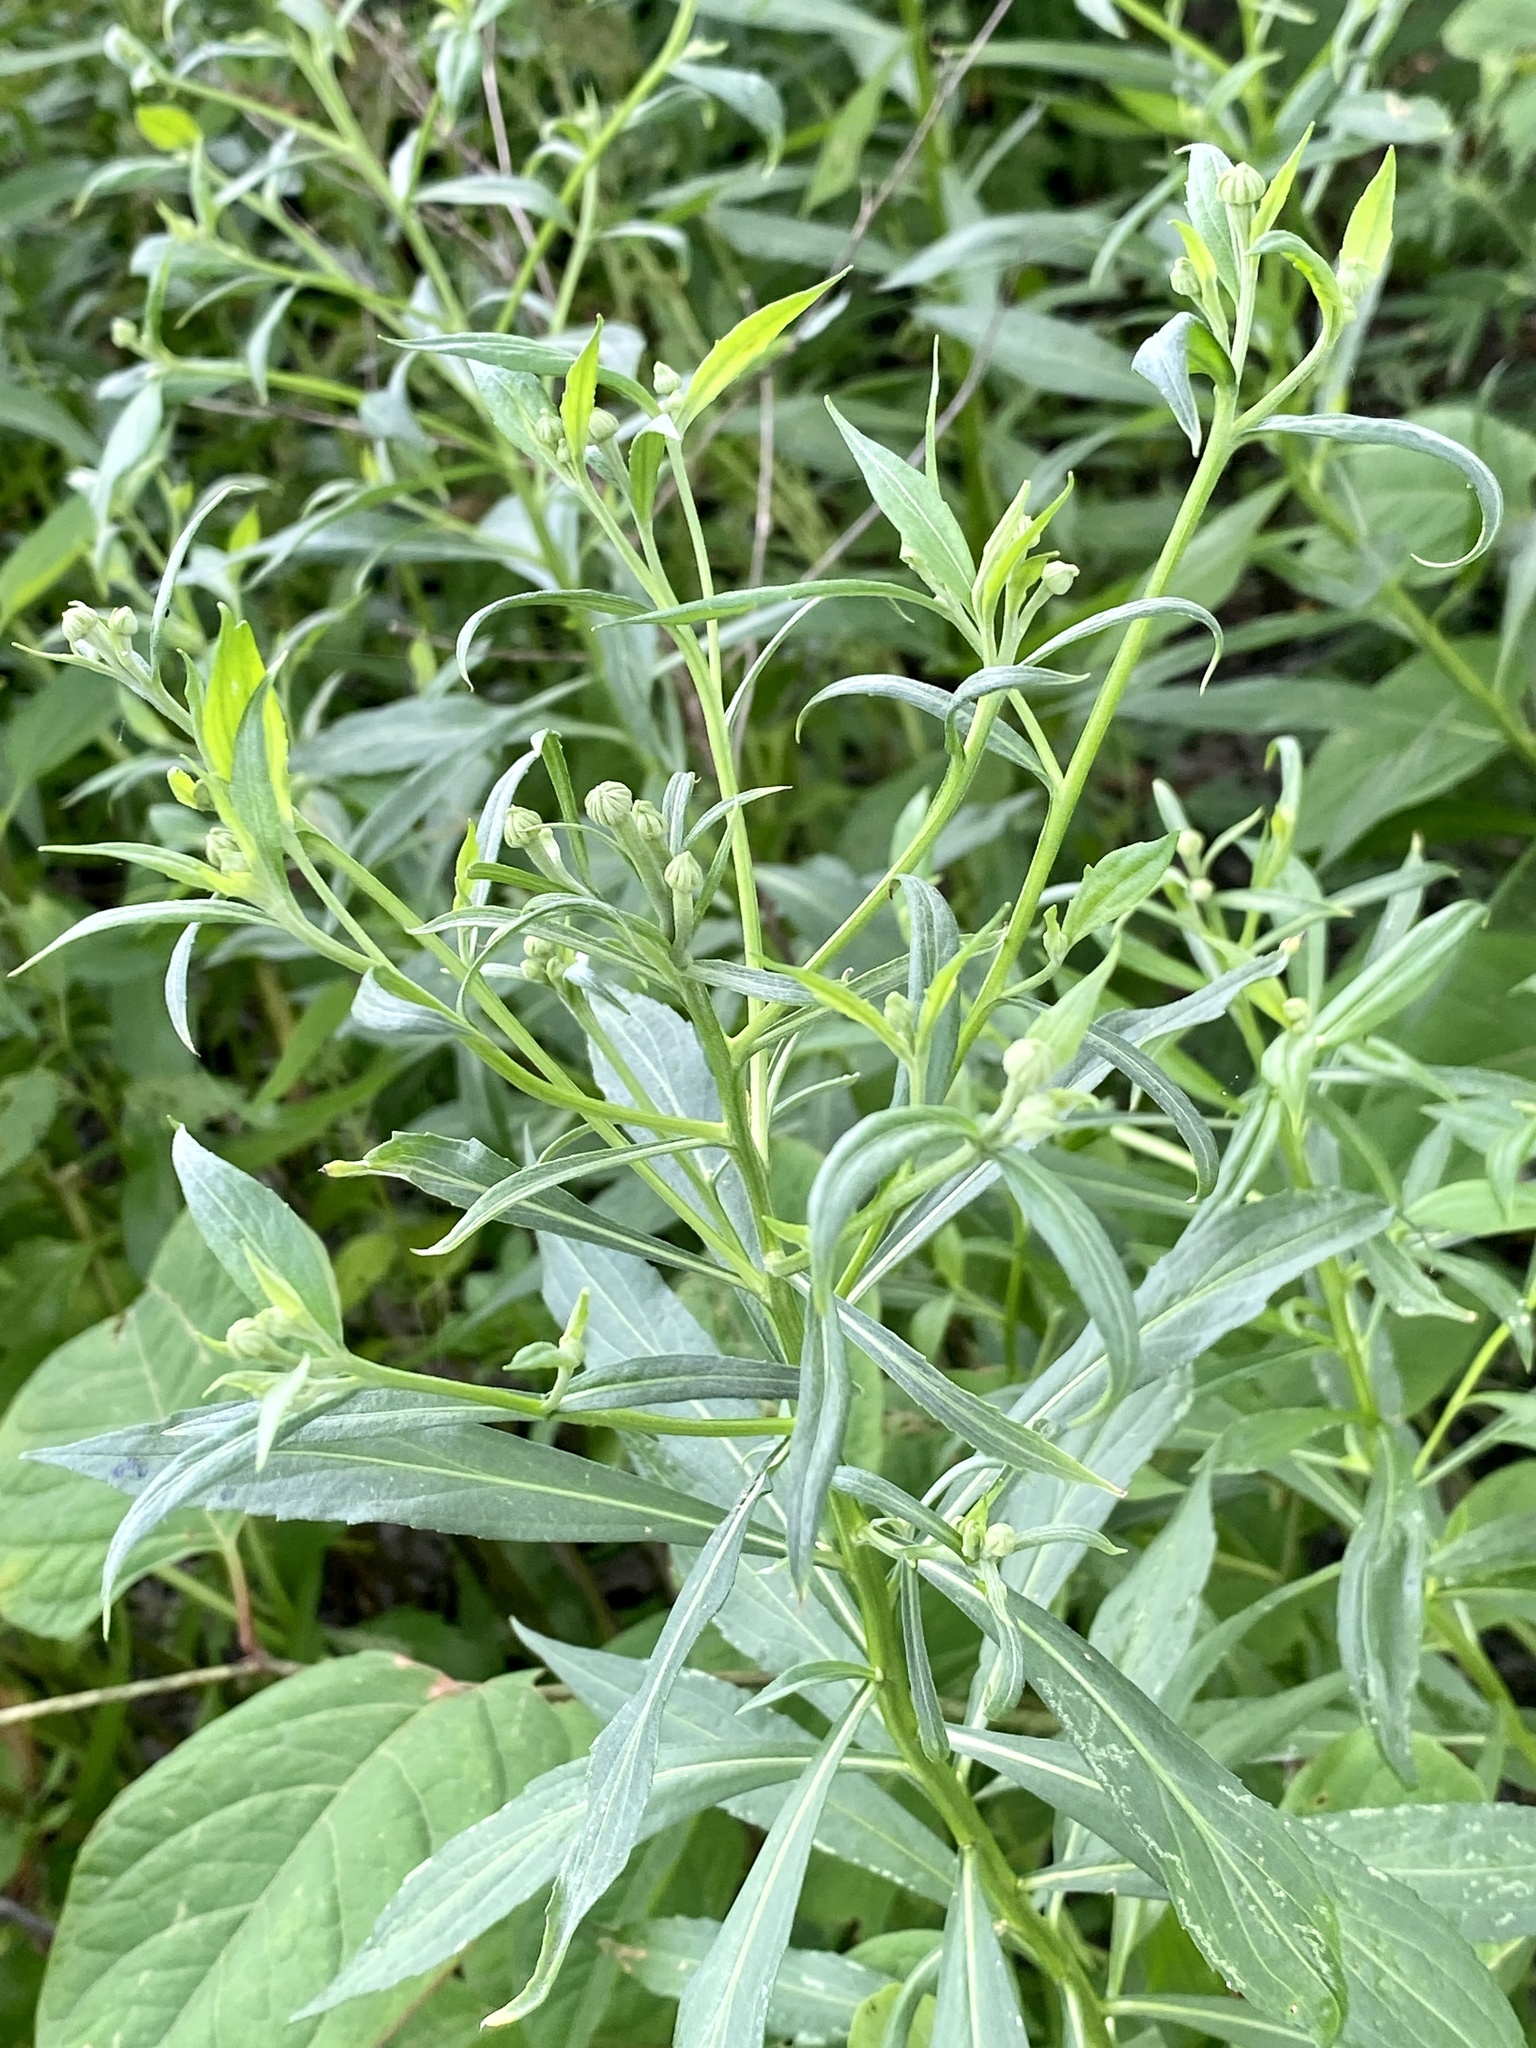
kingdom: Plantae
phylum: Tracheophyta
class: Magnoliopsida
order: Asterales
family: Asteraceae
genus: Helenium
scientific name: Helenium autumnale
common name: Sneezeweed
